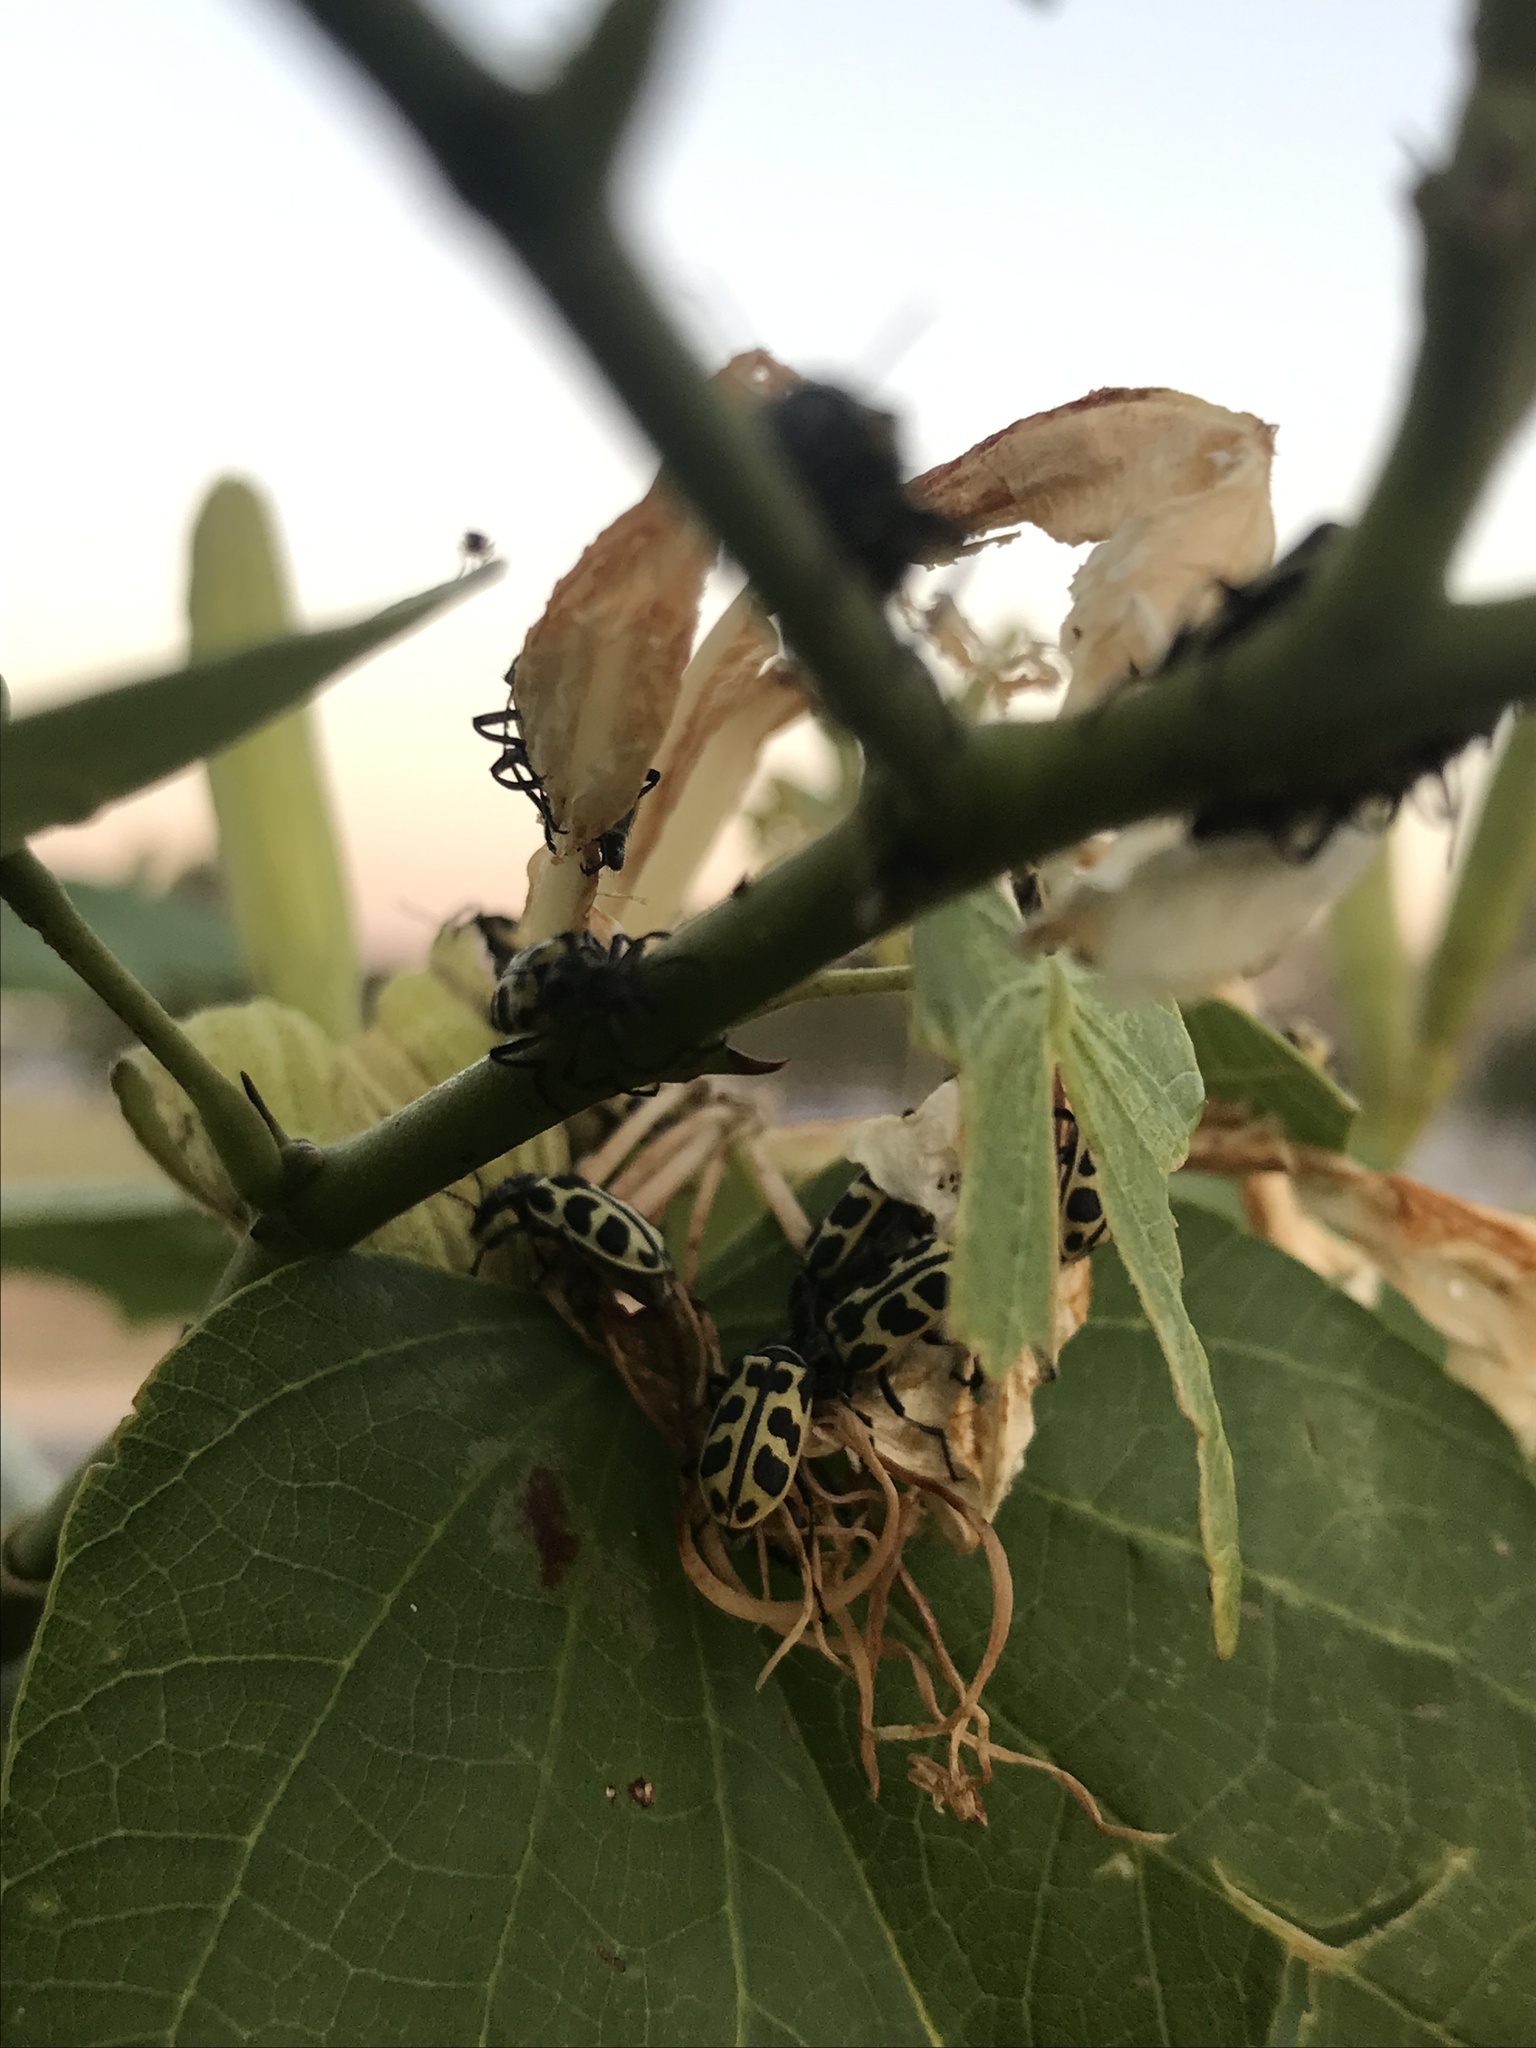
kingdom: Animalia
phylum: Arthropoda
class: Insecta
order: Coleoptera
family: Melyridae
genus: Astylus
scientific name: Astylus atromaculatus
